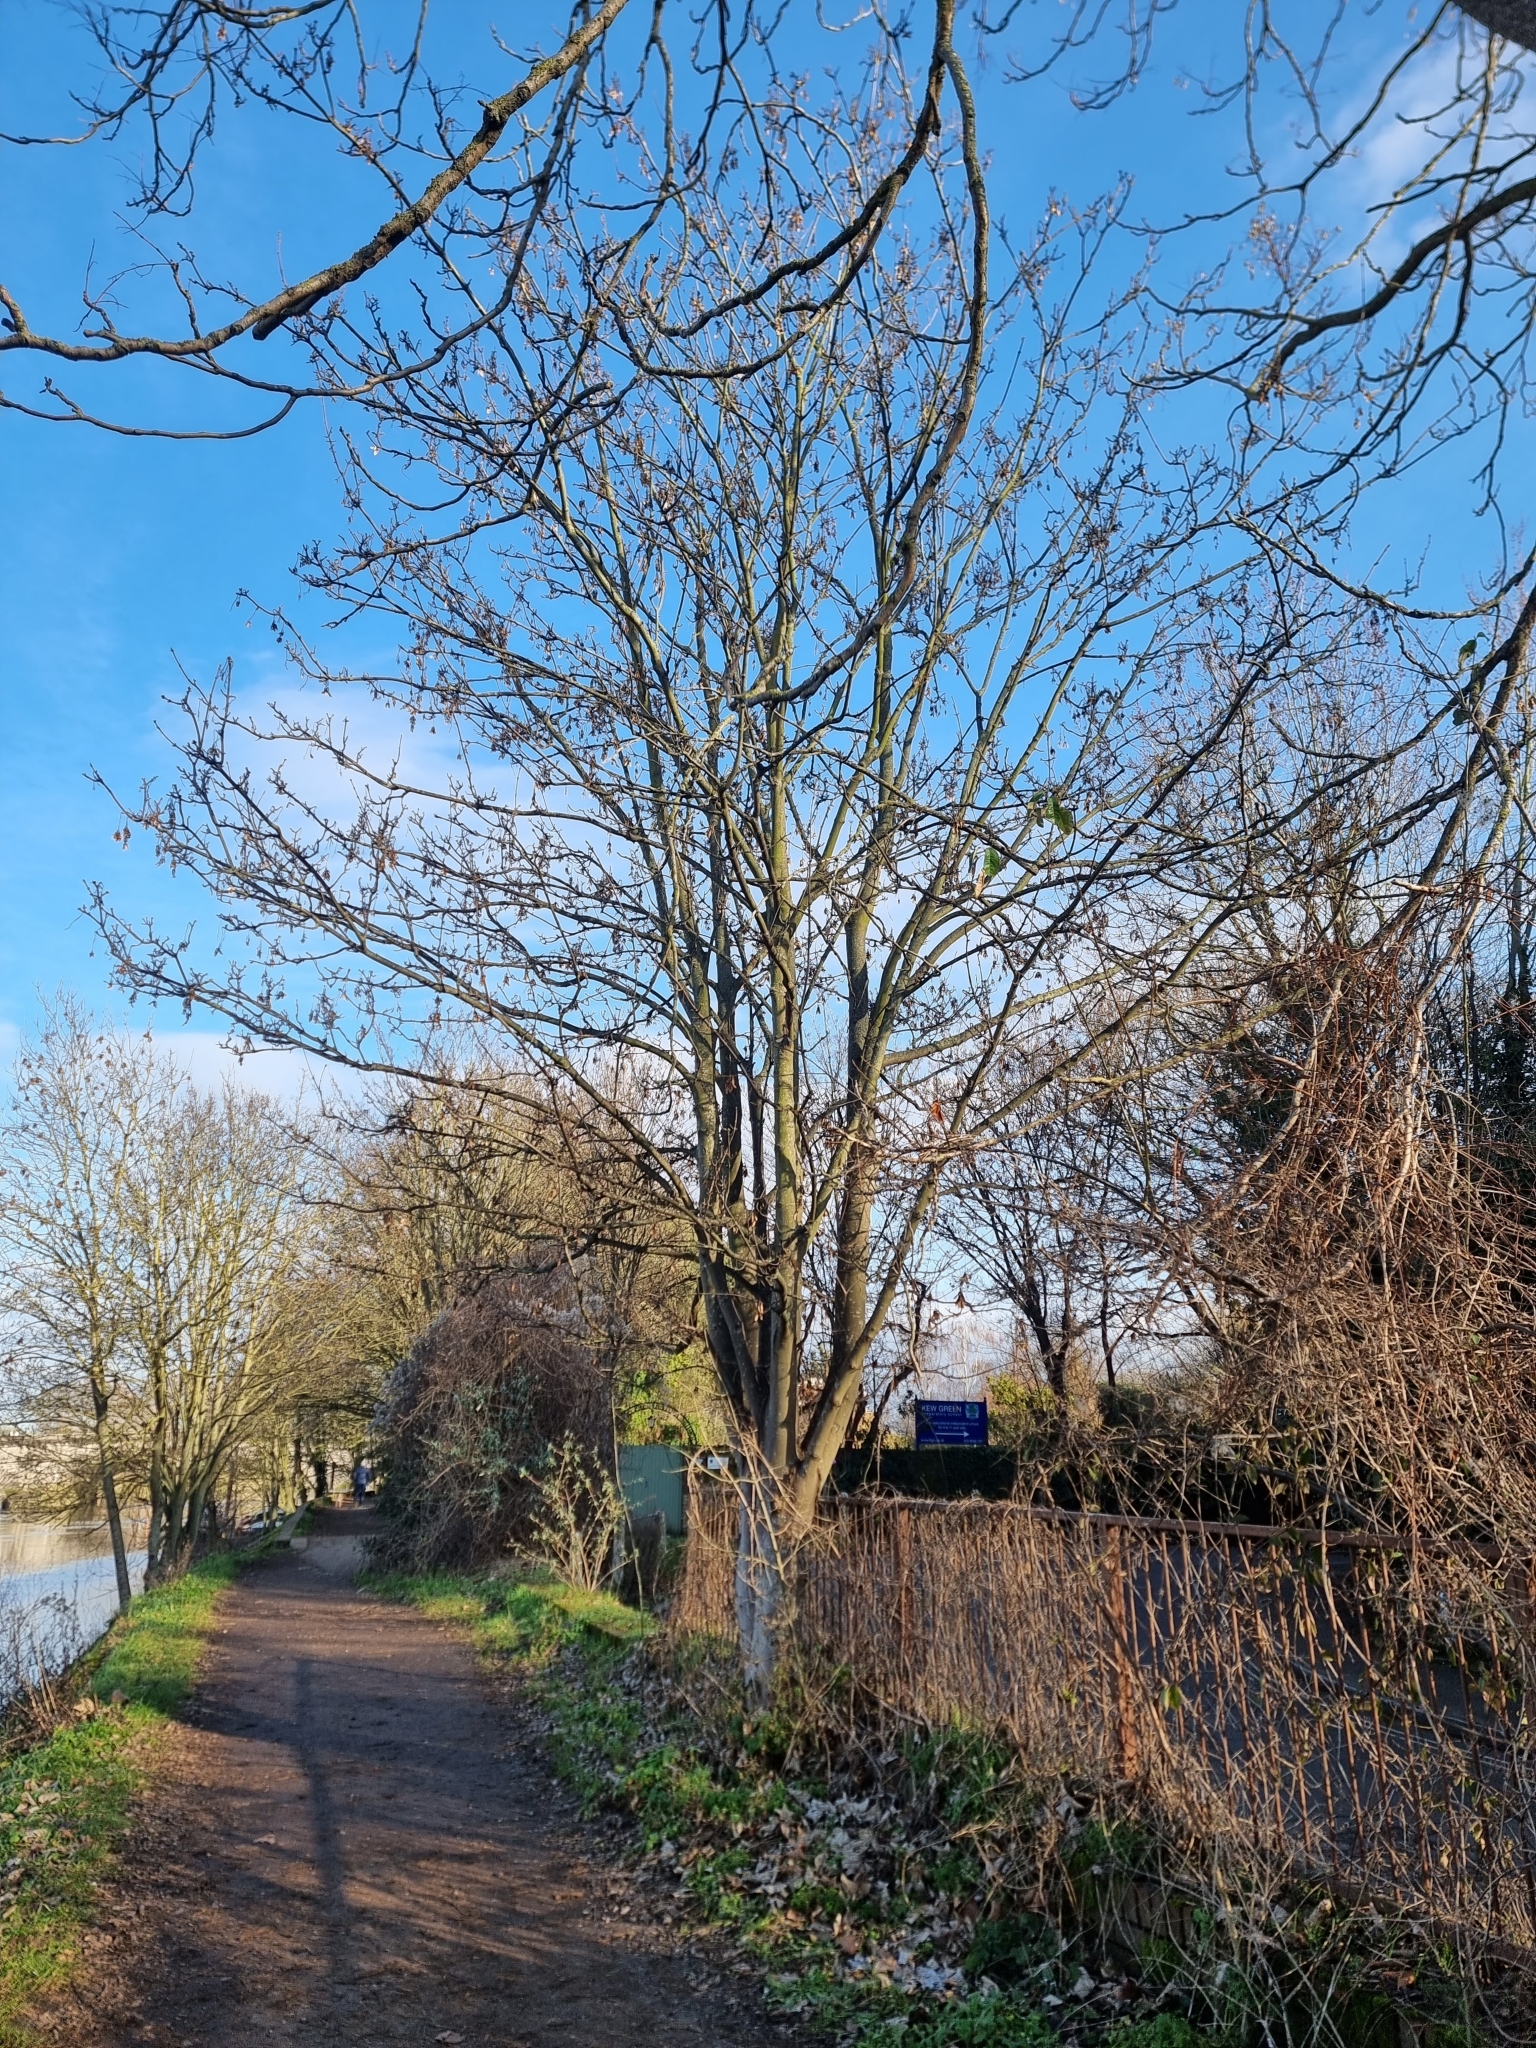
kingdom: Plantae
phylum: Tracheophyta
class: Magnoliopsida
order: Sapindales
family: Sapindaceae
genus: Acer
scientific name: Acer pseudoplatanus
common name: Sycamore
